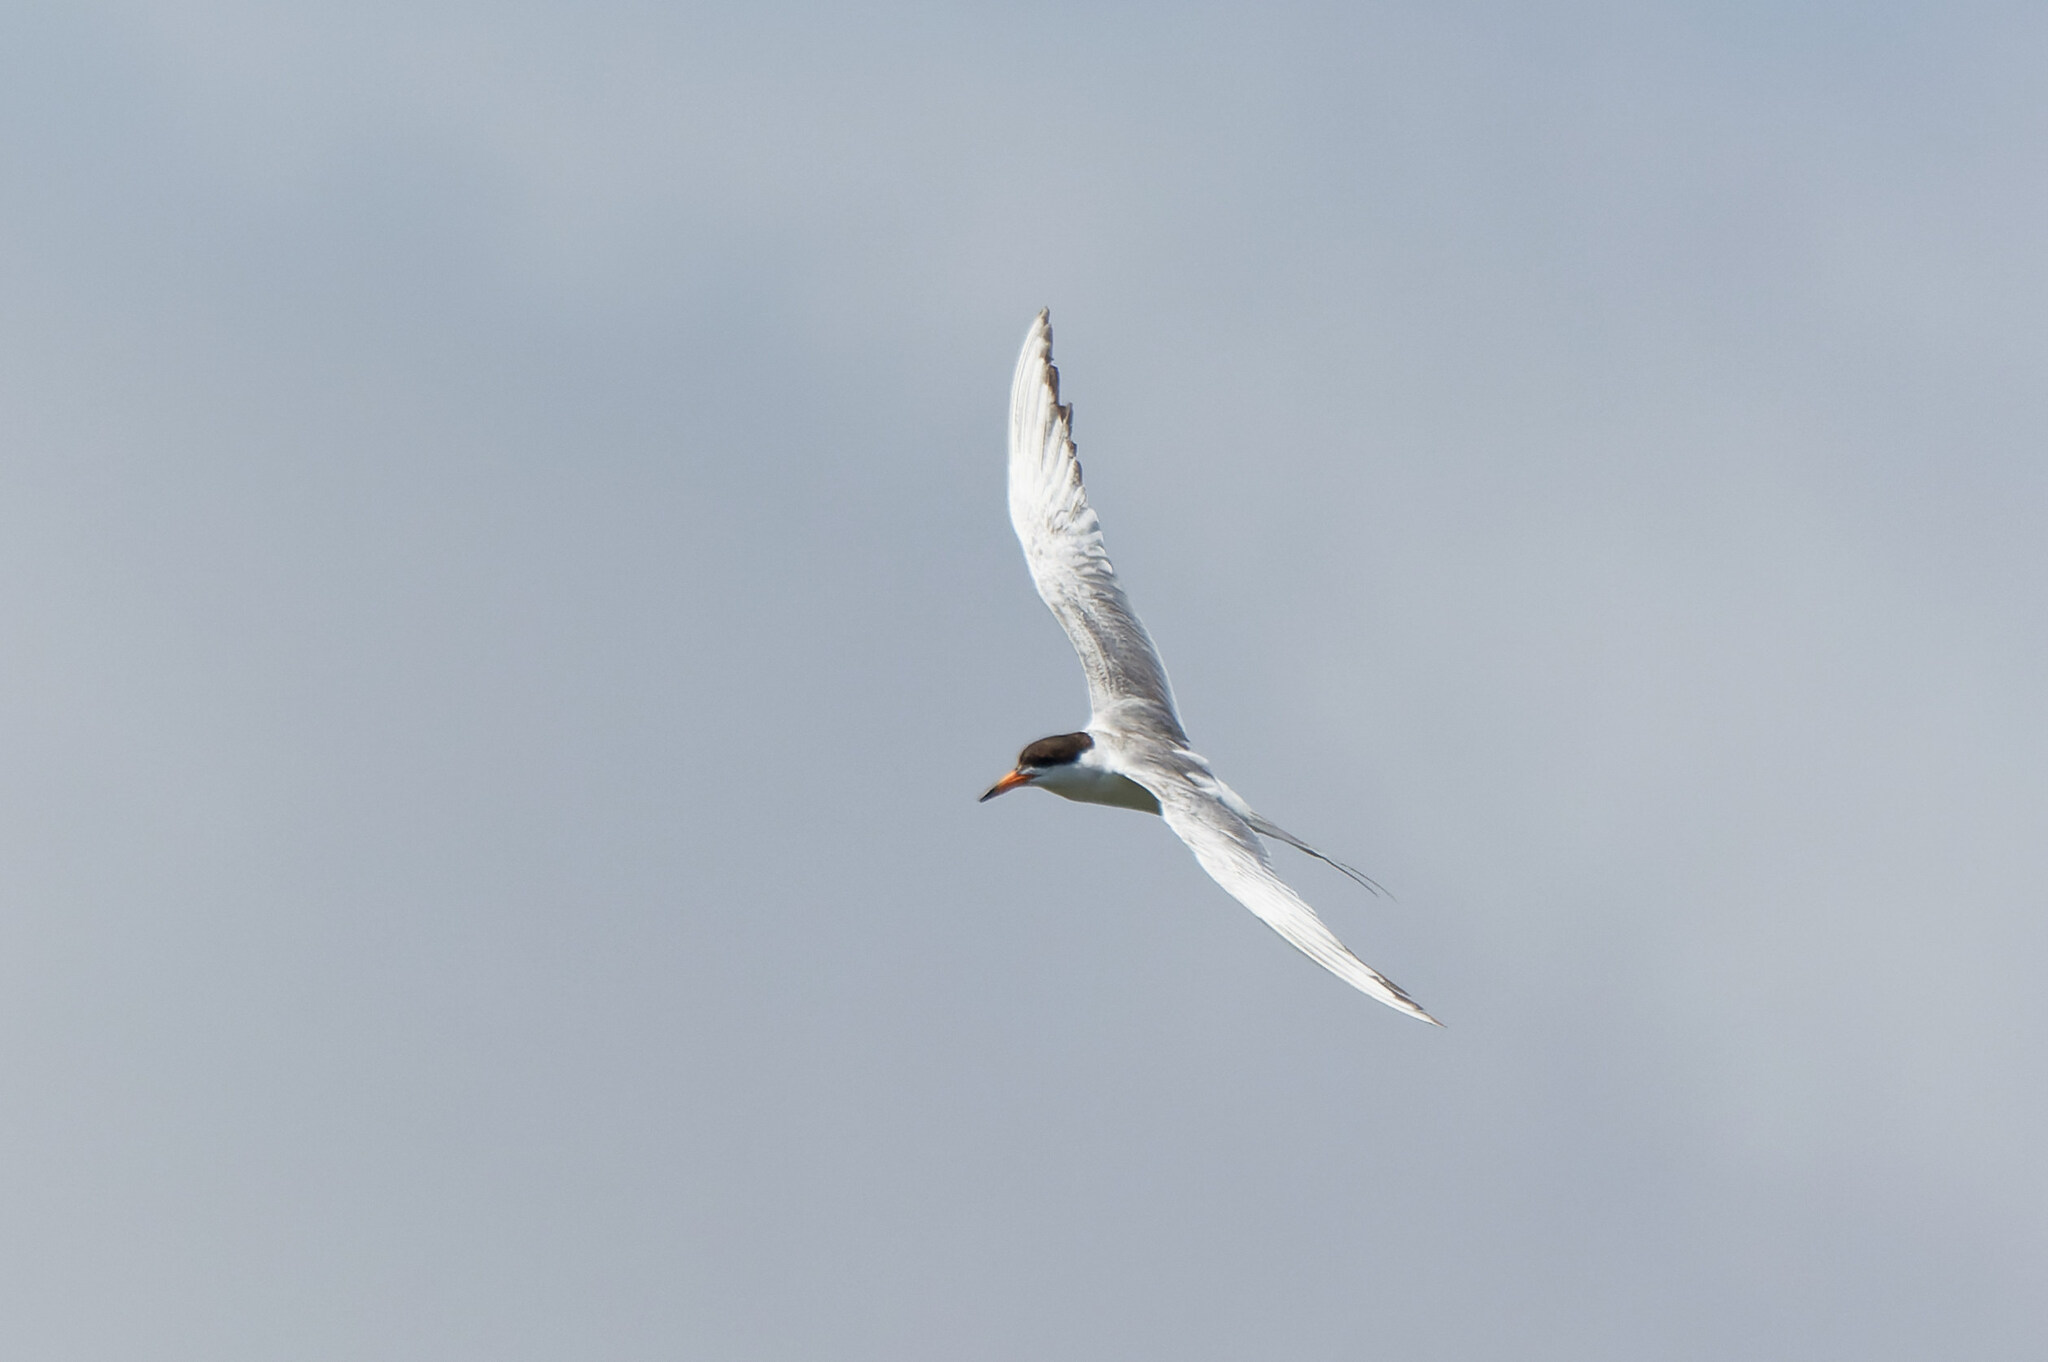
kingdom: Animalia
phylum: Chordata
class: Aves
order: Charadriiformes
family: Laridae
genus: Sterna
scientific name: Sterna forsteri
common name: Forster's tern
